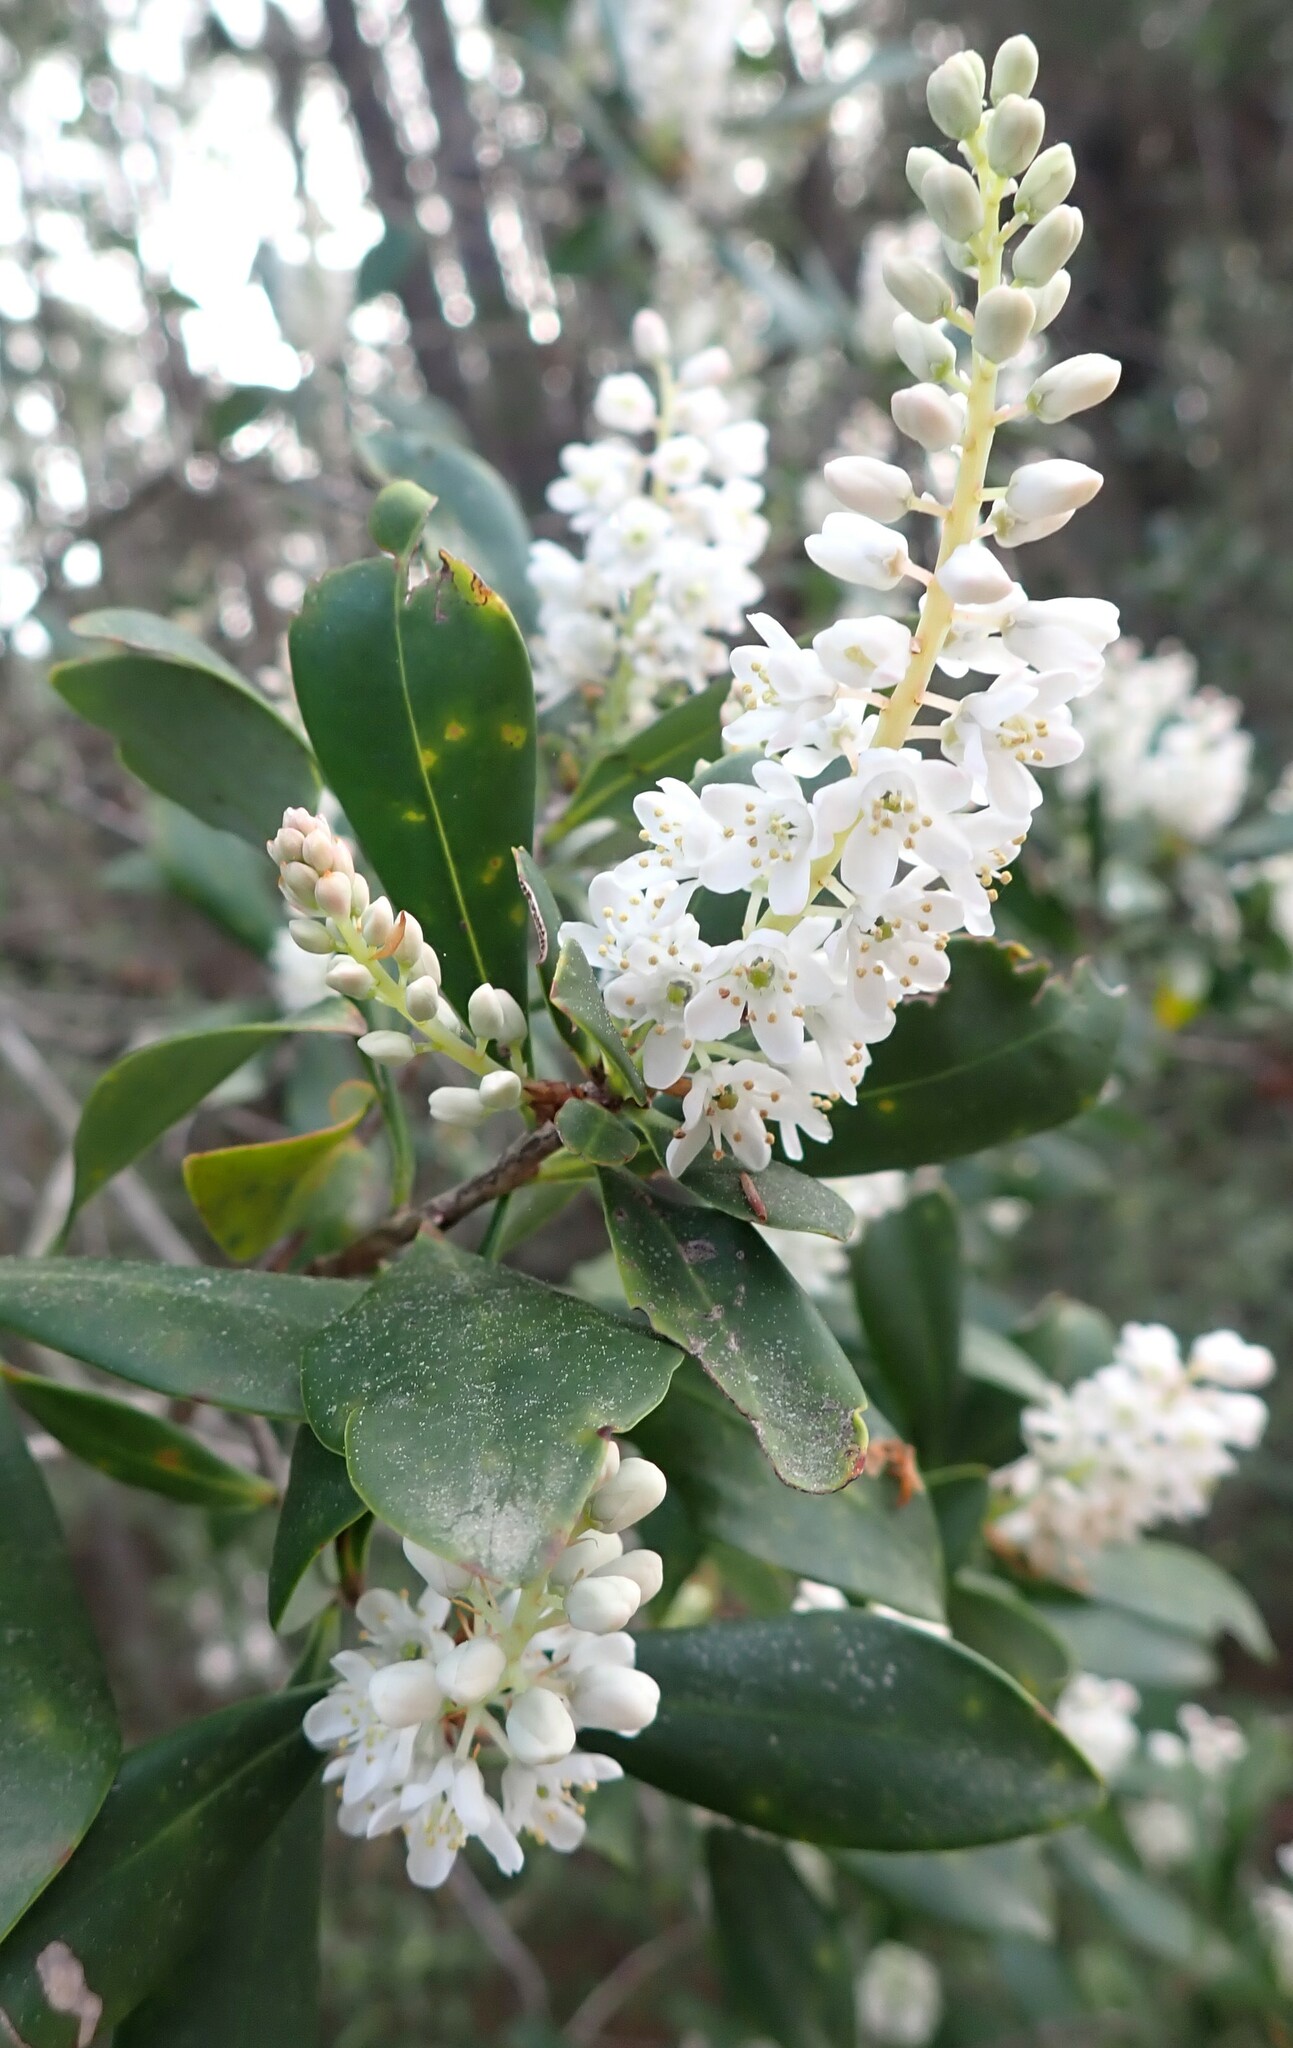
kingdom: Plantae
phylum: Tracheophyta
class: Magnoliopsida
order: Ericales
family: Cyrillaceae
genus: Cliftonia
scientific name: Cliftonia monophylla
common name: Titi
